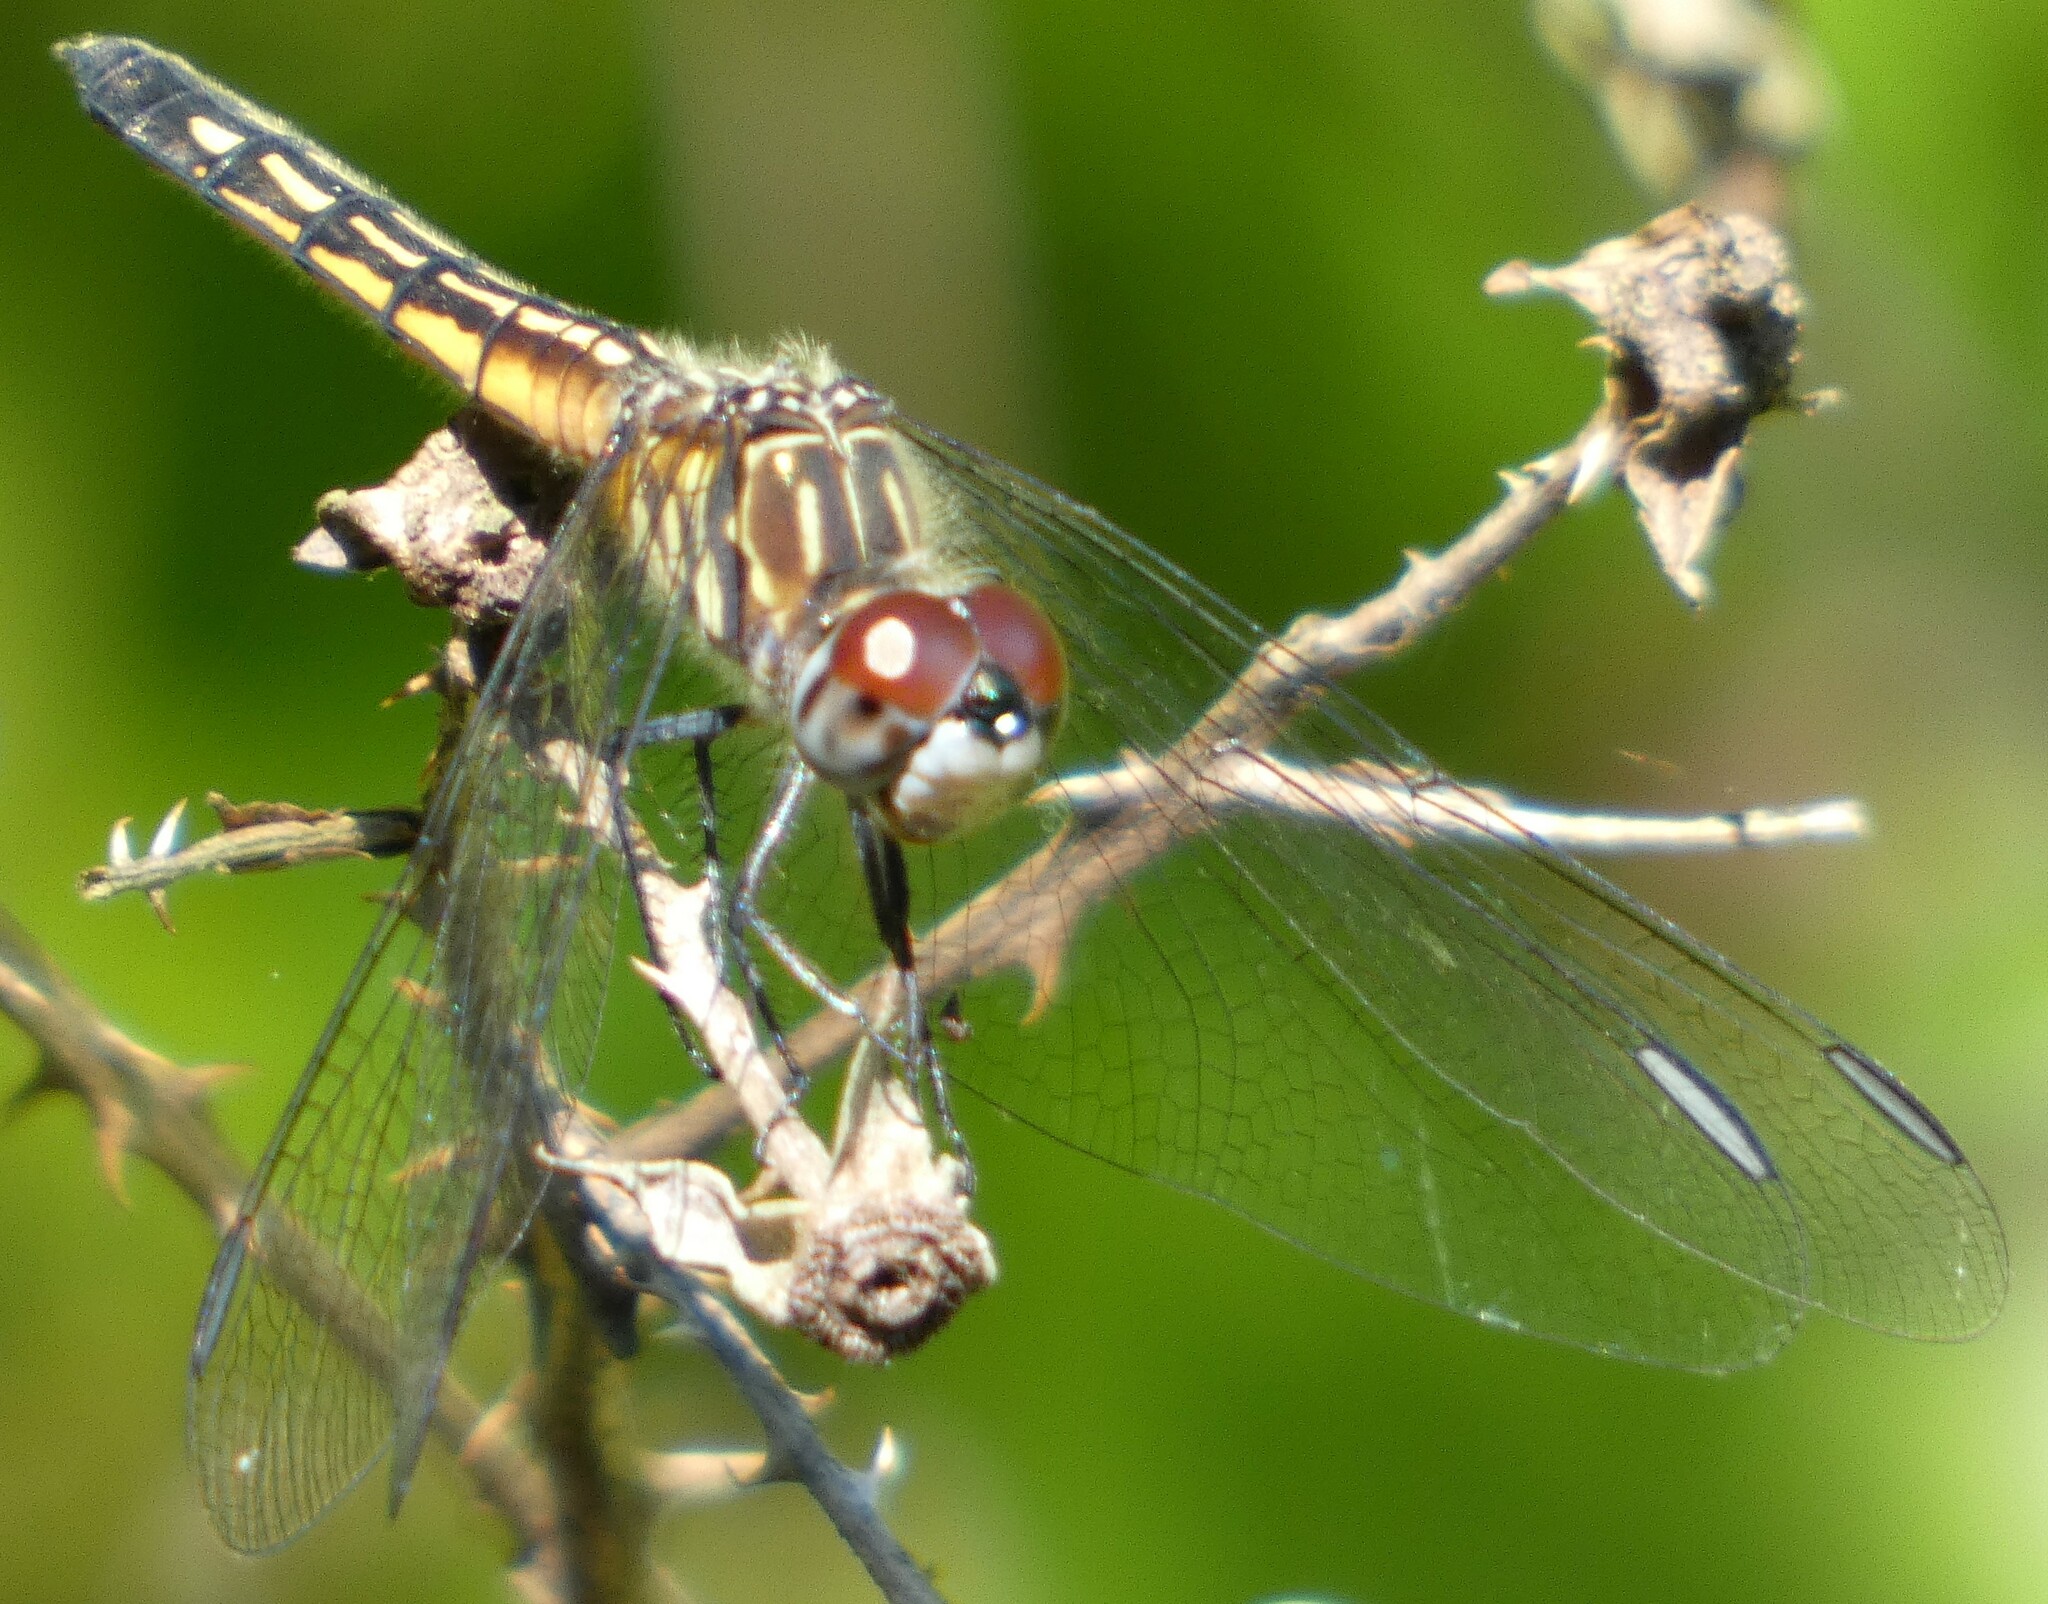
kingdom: Animalia
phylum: Arthropoda
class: Insecta
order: Odonata
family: Libellulidae
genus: Pachydiplax
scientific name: Pachydiplax longipennis
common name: Blue dasher
